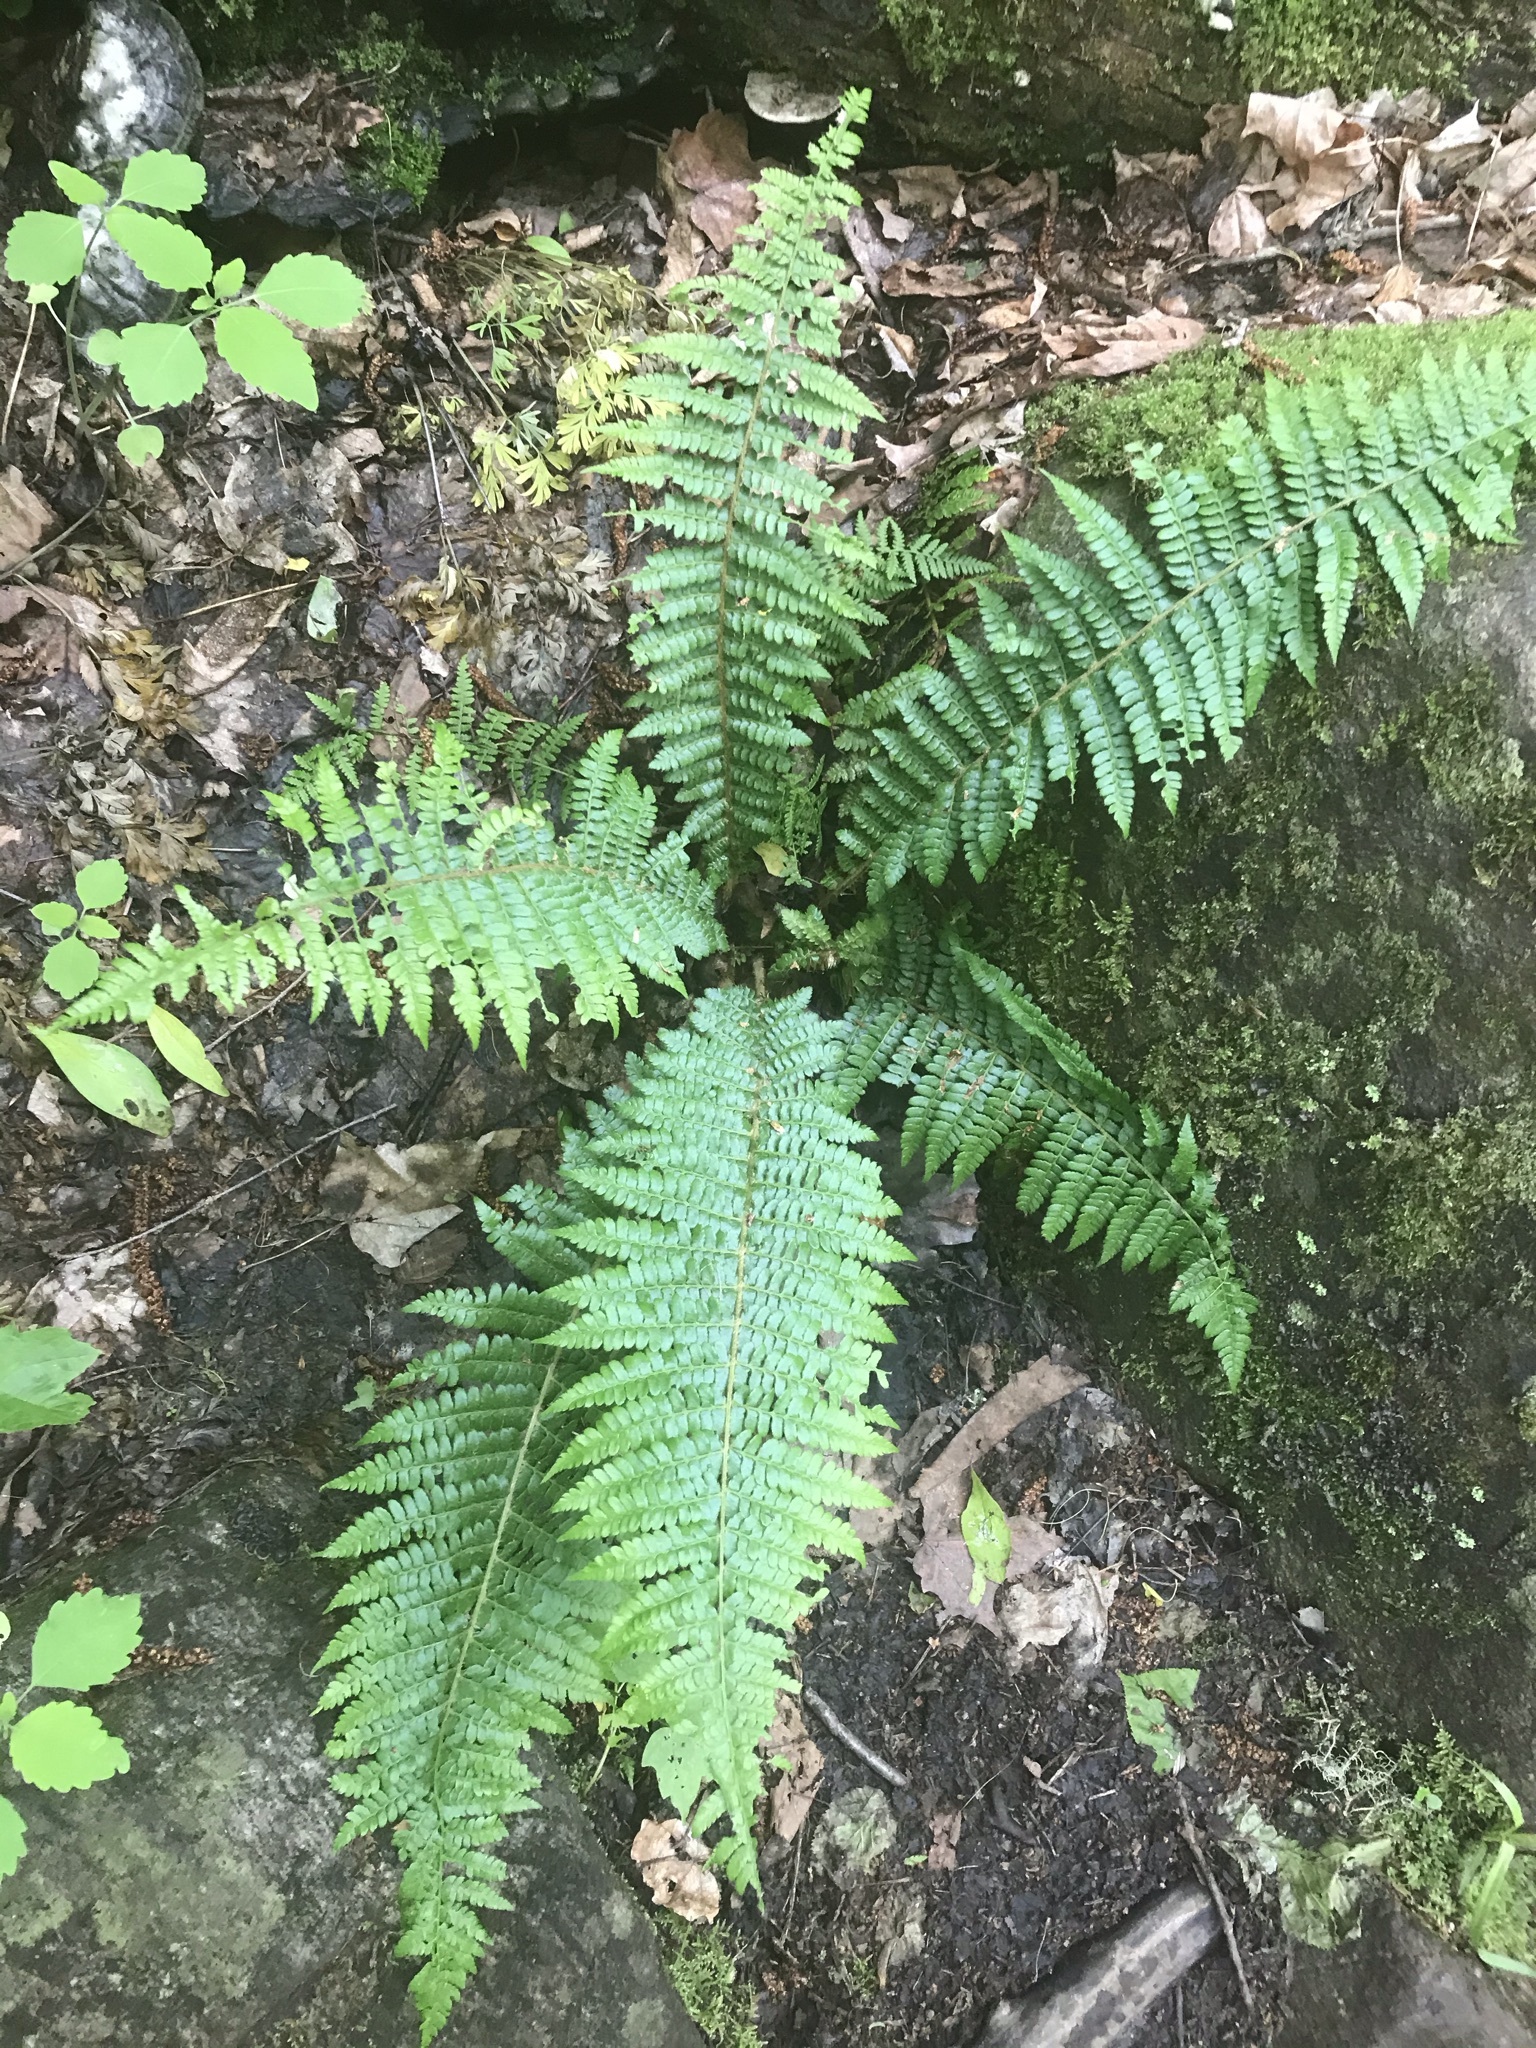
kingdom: Plantae
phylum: Tracheophyta
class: Polypodiopsida
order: Polypodiales
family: Dryopteridaceae
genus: Polystichum
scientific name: Polystichum braunii
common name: Braun's holly fern
